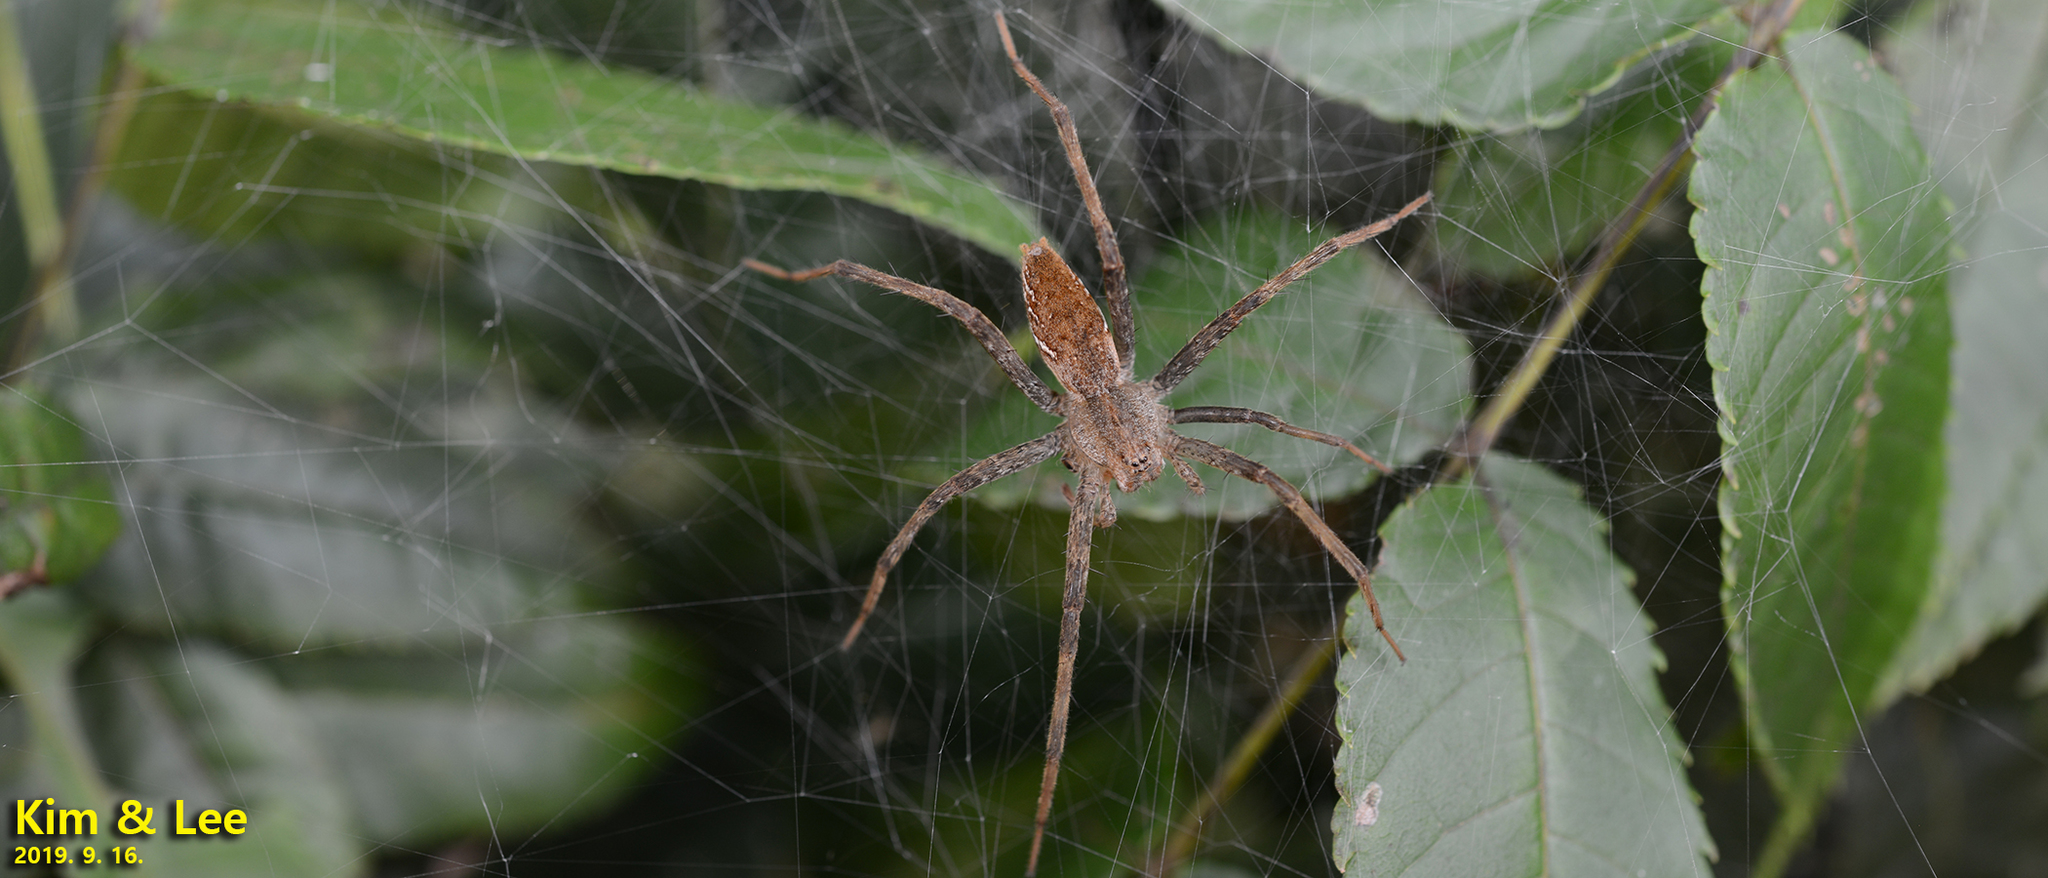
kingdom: Animalia
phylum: Arthropoda
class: Arachnida
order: Araneae
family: Pisauridae
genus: Dolomedes
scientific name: Dolomedes sulfureus
